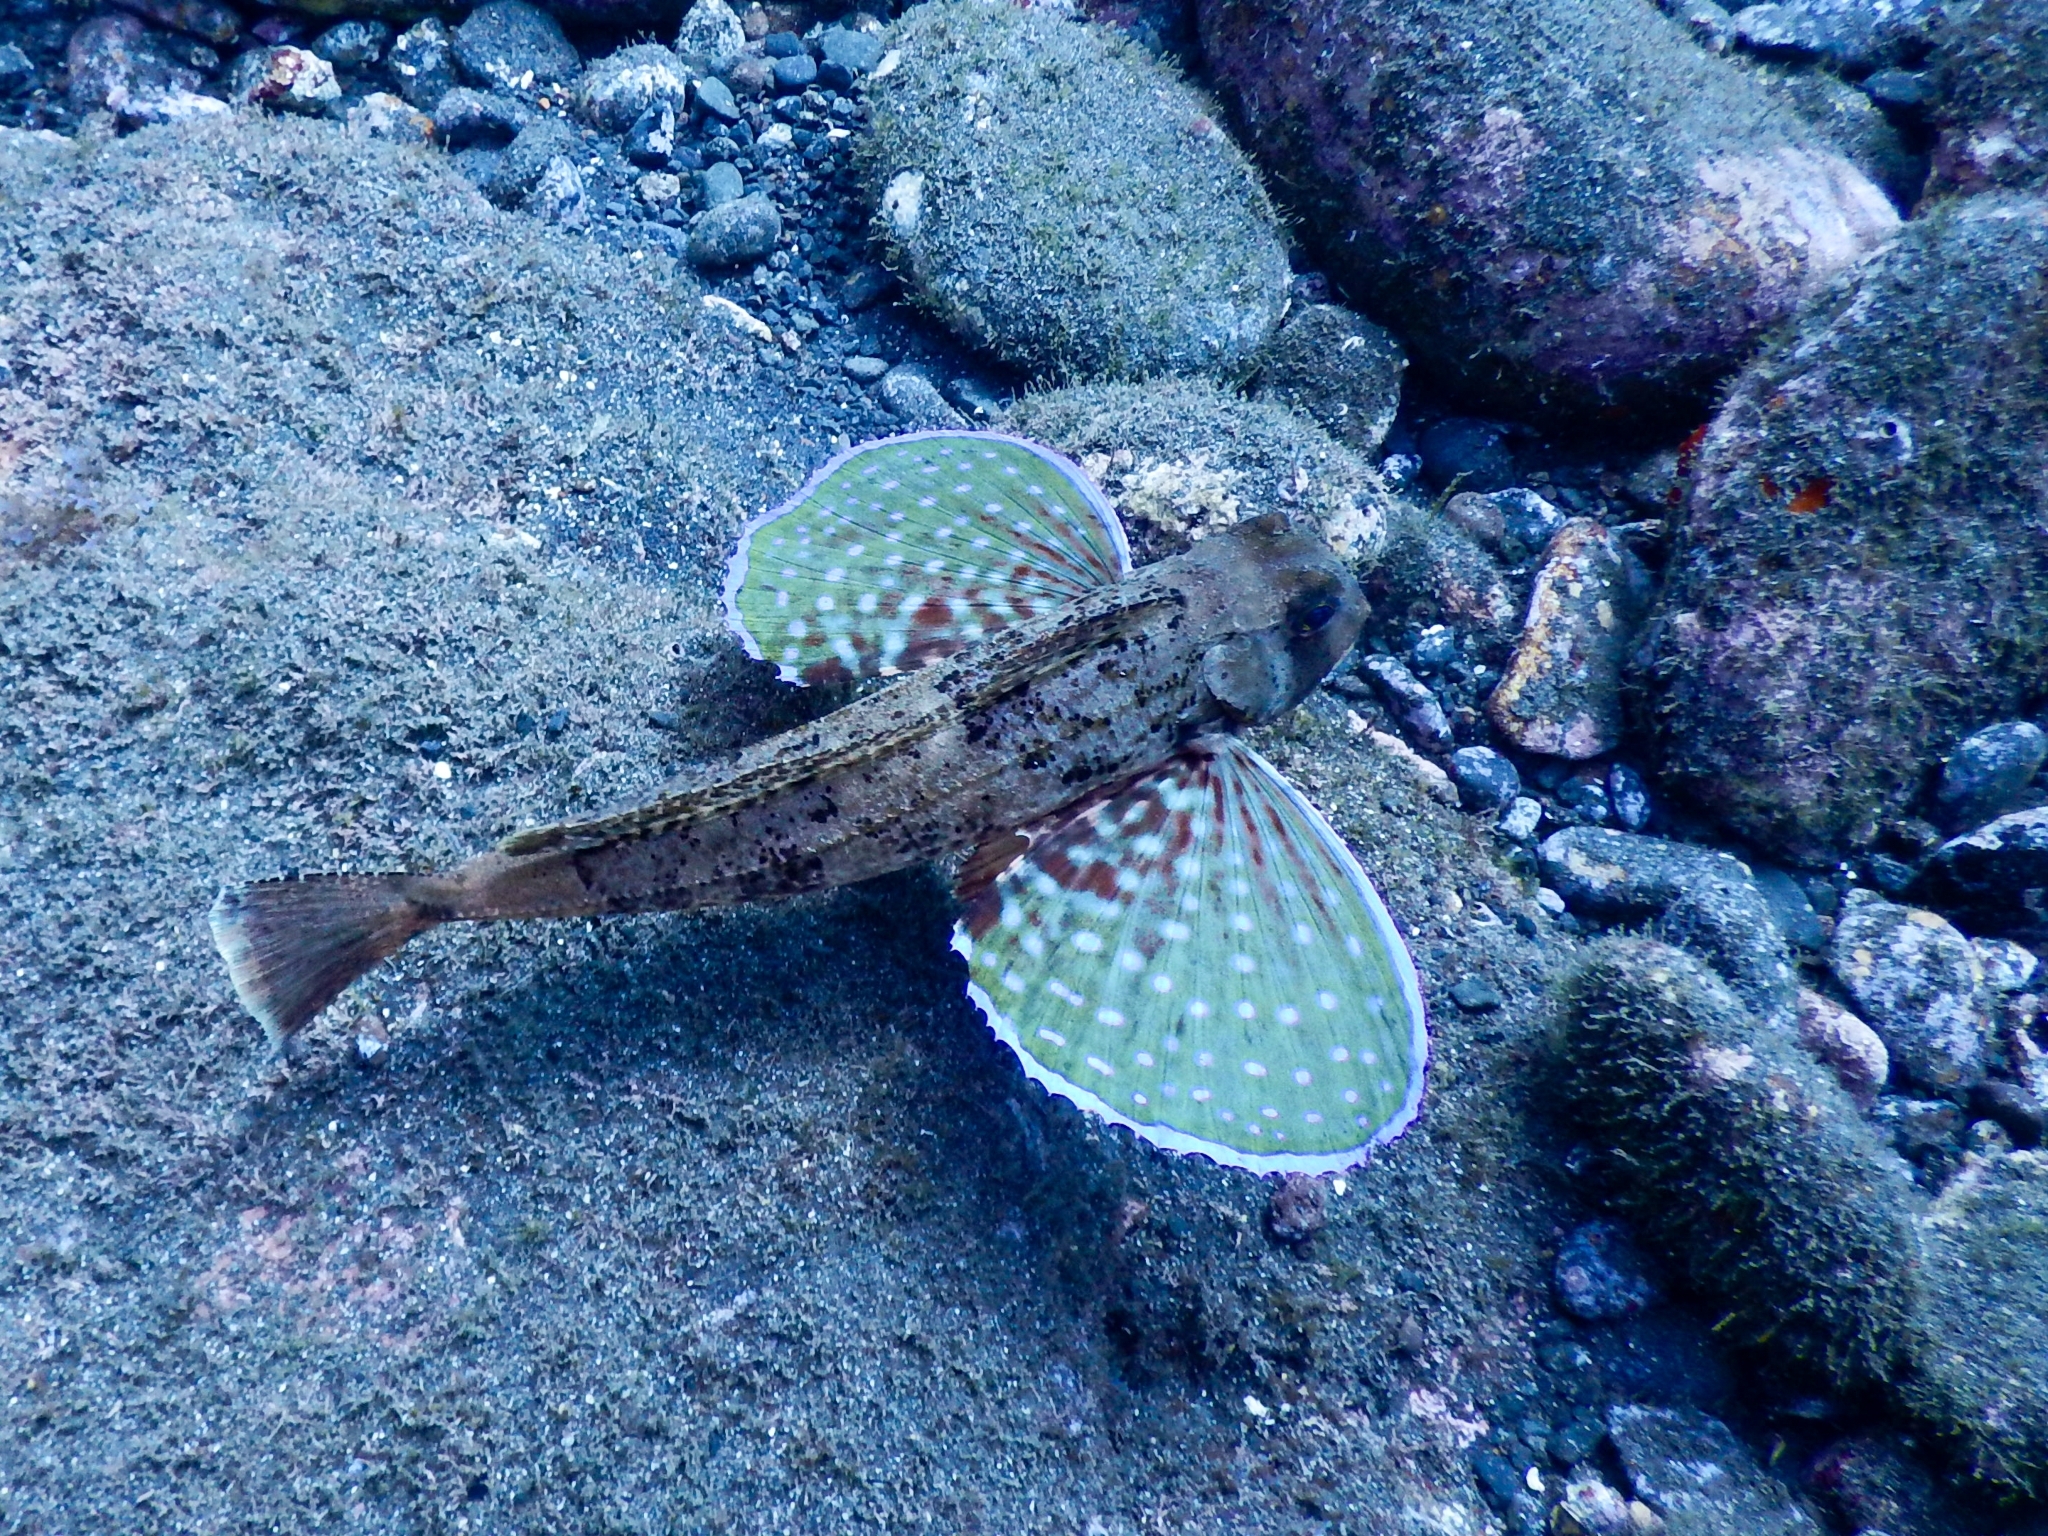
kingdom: Animalia
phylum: Chordata
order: Scorpaeniformes
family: Triglidae
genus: Chelidonichthys
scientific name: Chelidonichthys lastoviza
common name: Streaked gurnard
